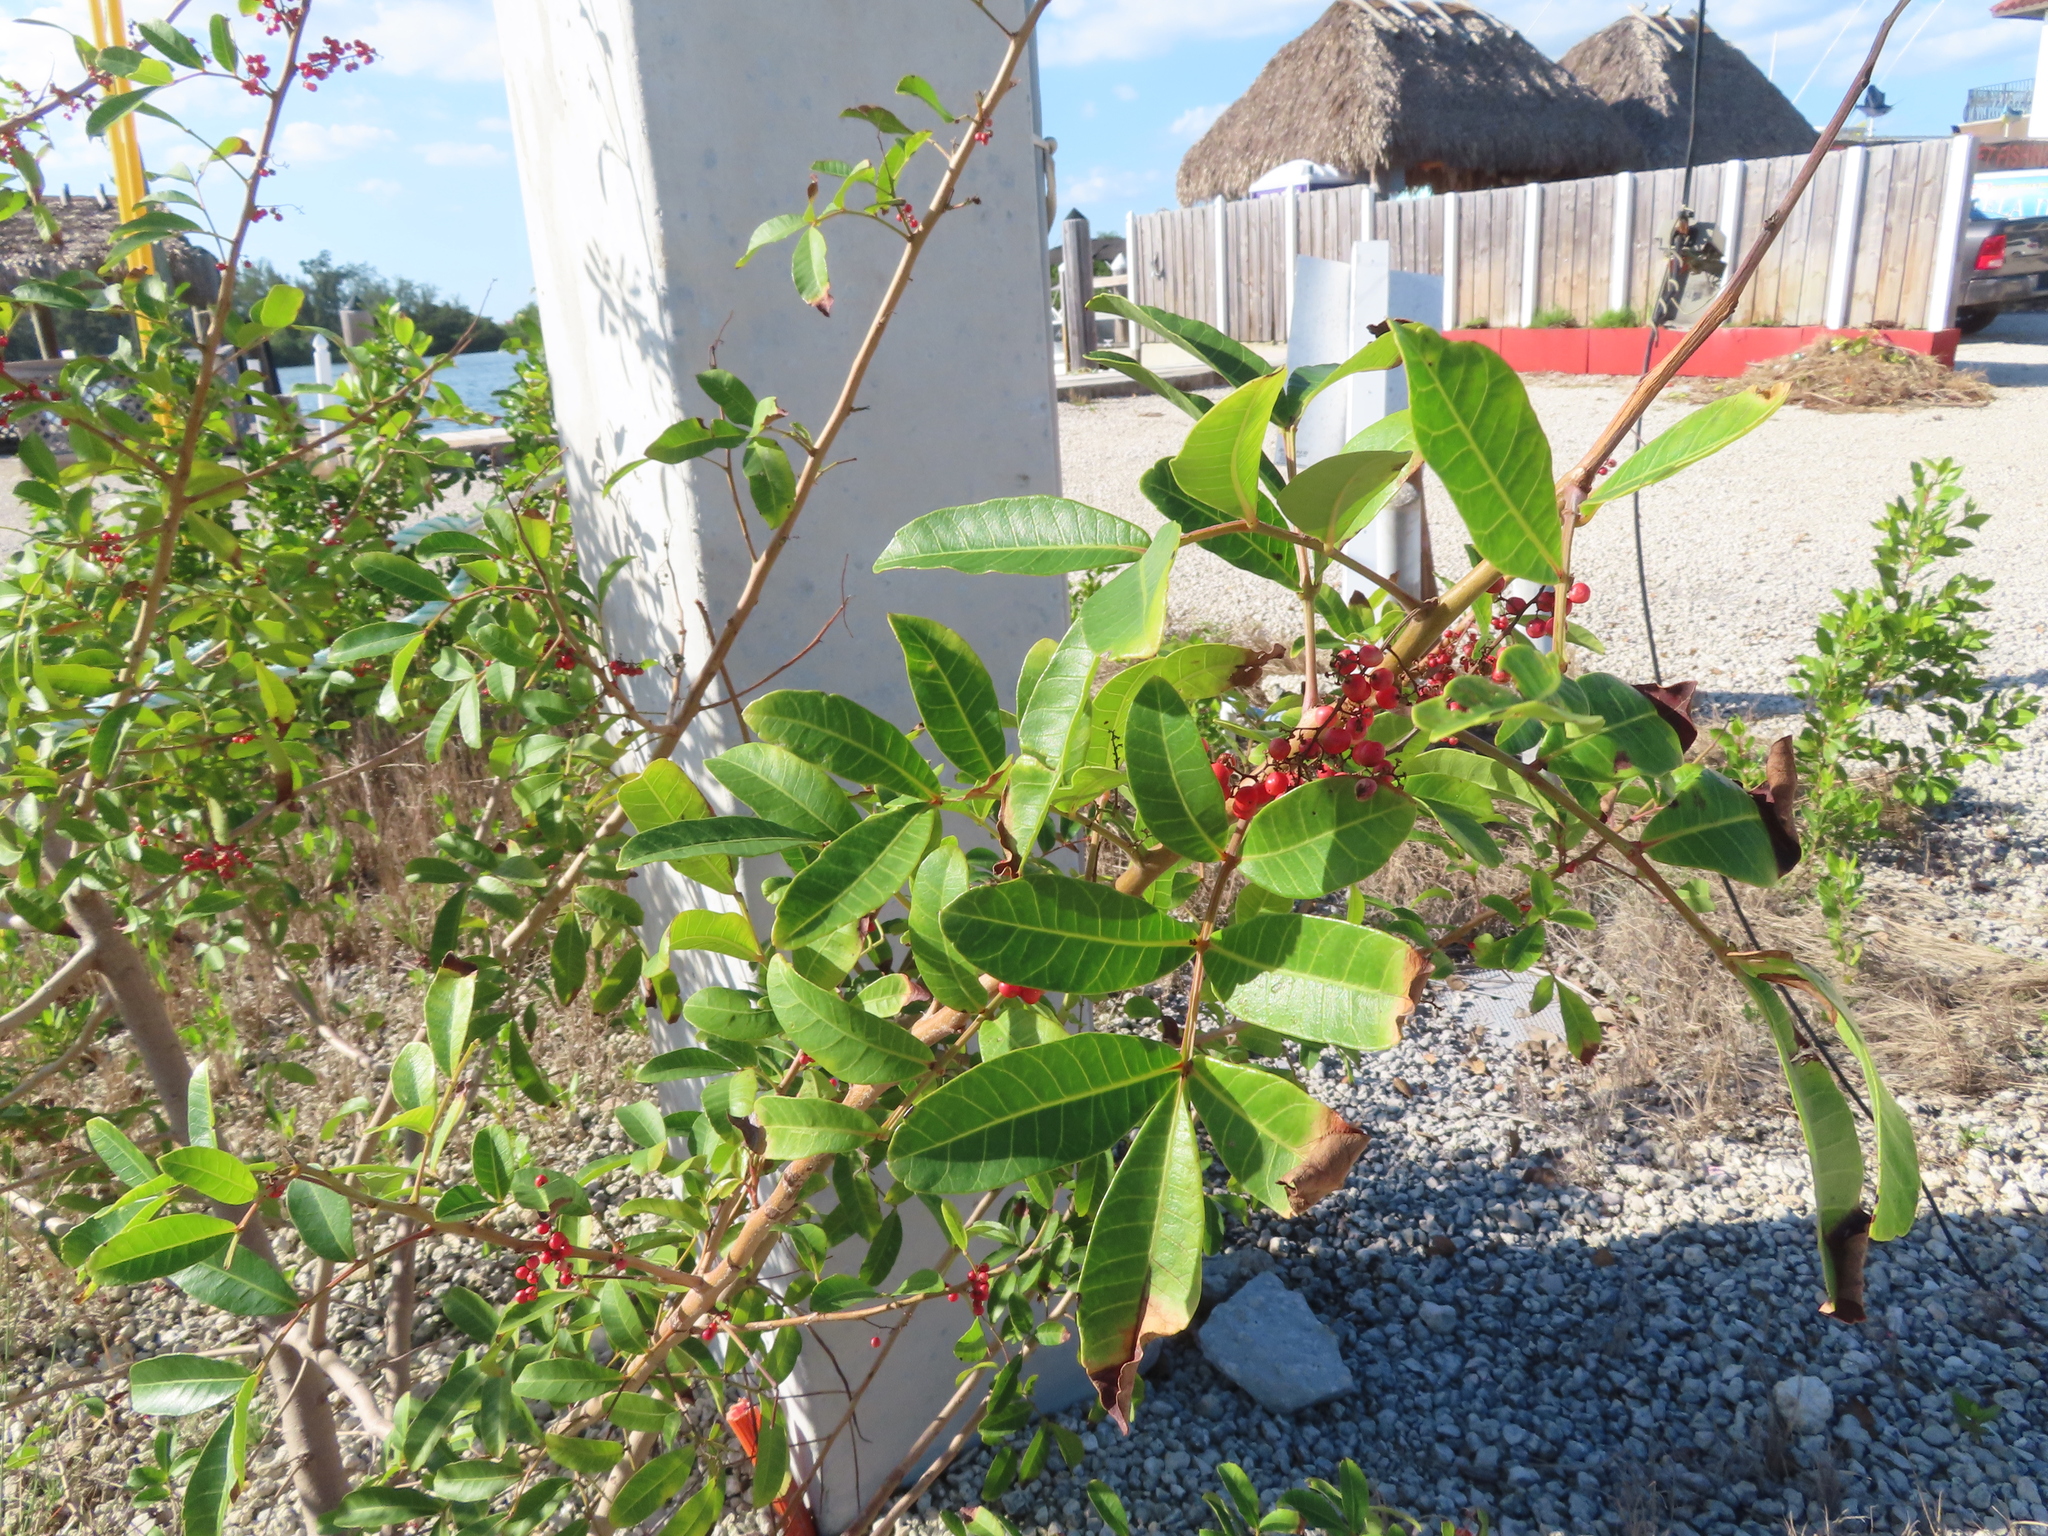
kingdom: Plantae
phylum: Tracheophyta
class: Magnoliopsida
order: Sapindales
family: Anacardiaceae
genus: Schinus
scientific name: Schinus terebinthifolia
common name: Brazilian peppertree
